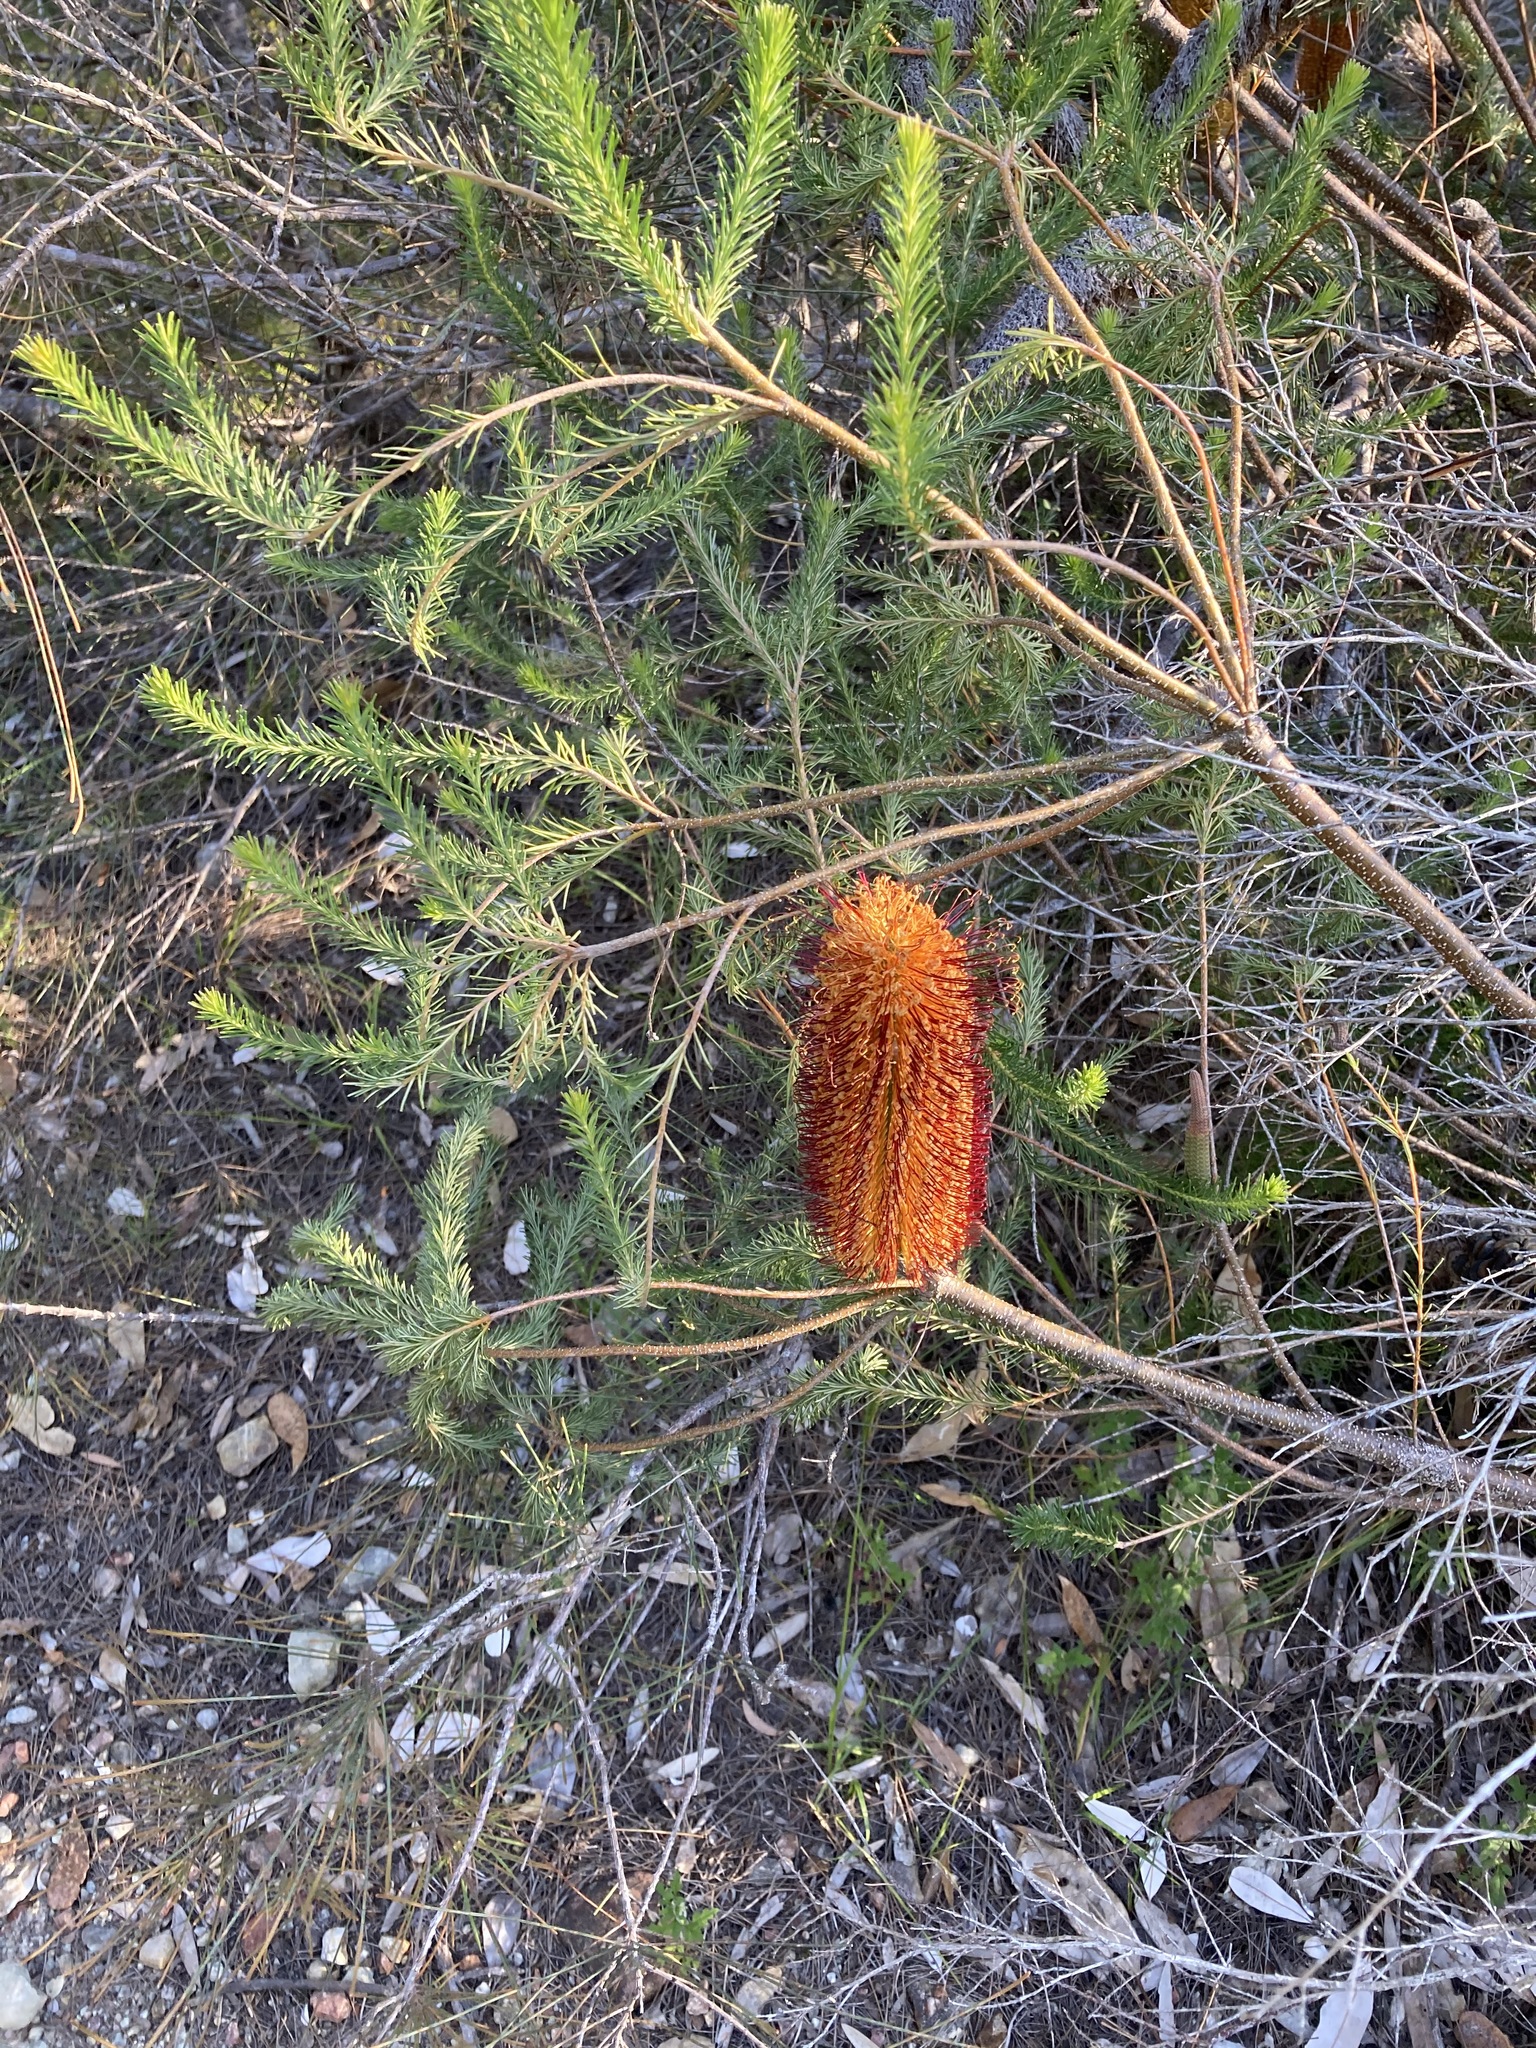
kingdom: Plantae
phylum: Tracheophyta
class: Magnoliopsida
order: Proteales
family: Proteaceae
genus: Banksia
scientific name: Banksia ericifolia
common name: Heath-leaf banksia
